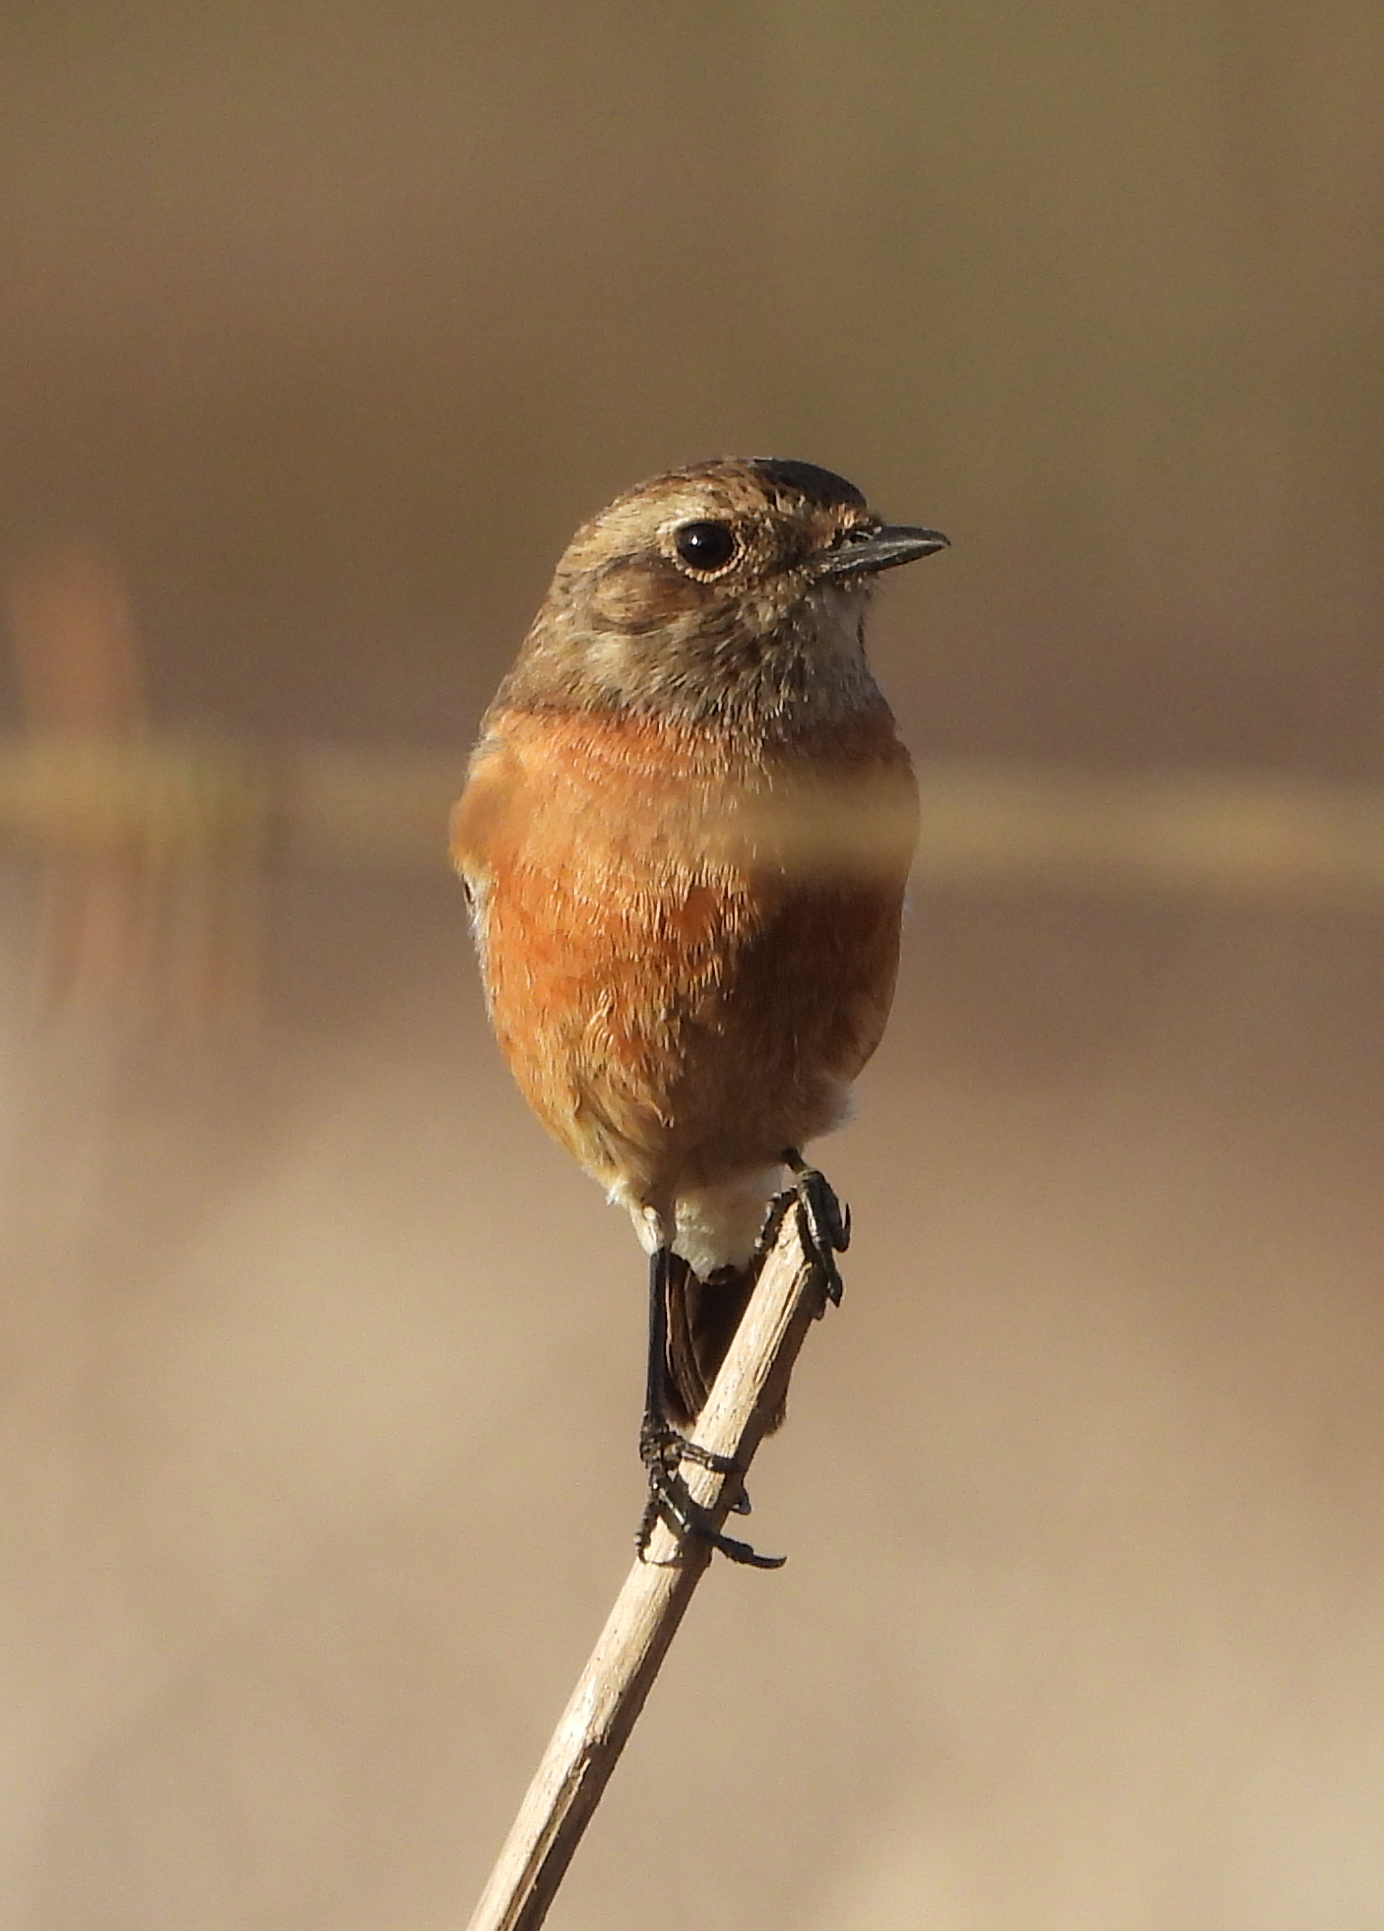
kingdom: Animalia
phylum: Chordata
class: Aves
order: Passeriformes
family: Muscicapidae
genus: Saxicola
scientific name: Saxicola torquatus
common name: African stonechat
